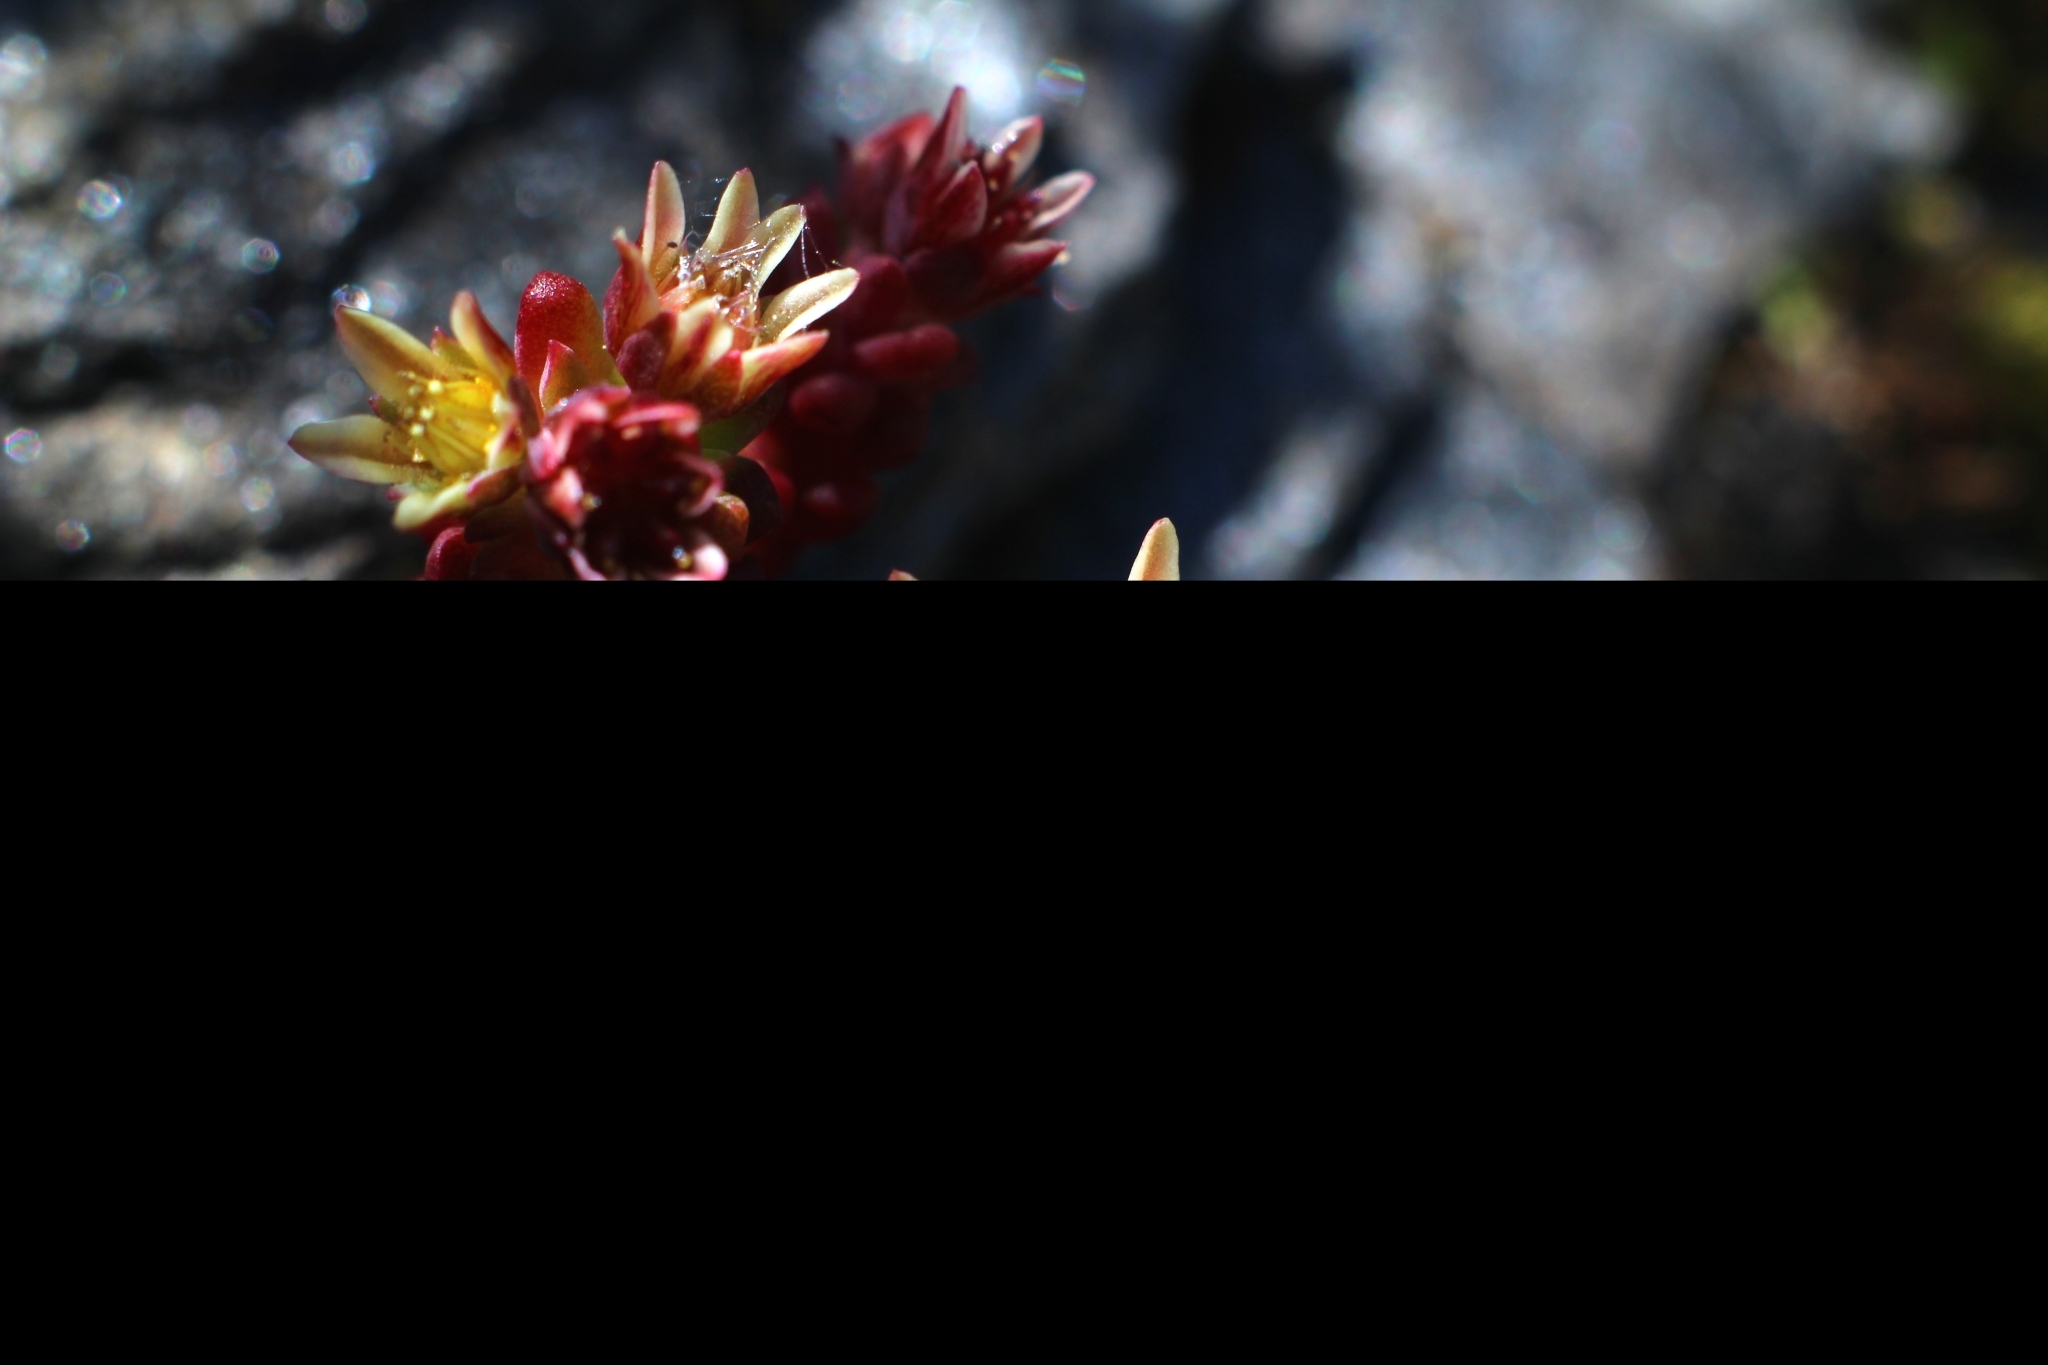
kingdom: Plantae
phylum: Tracheophyta
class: Magnoliopsida
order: Saxifragales
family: Crassulaceae
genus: Sedum
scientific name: Sedum atratum
